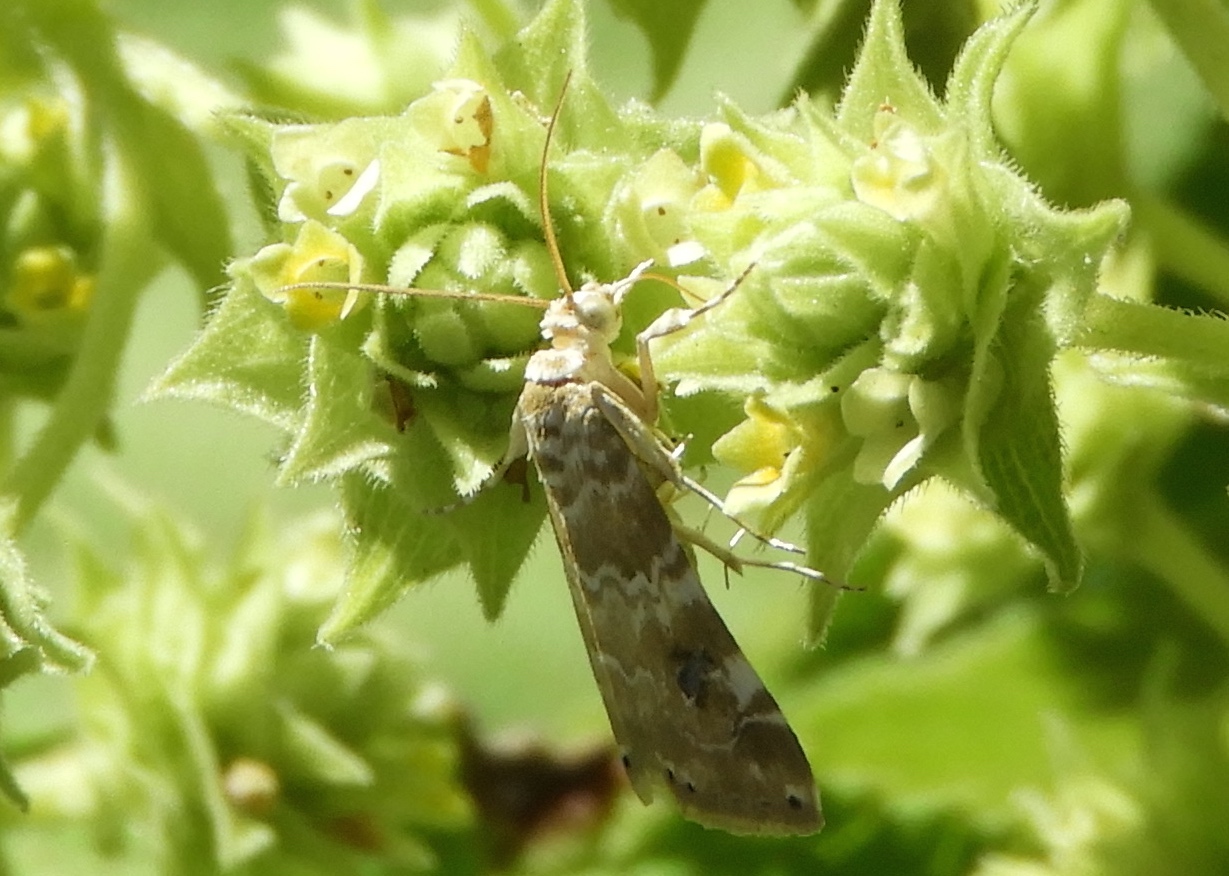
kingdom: Animalia
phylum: Arthropoda
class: Insecta
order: Lepidoptera
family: Crambidae
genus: Hellula
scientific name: Hellula rogatalis
